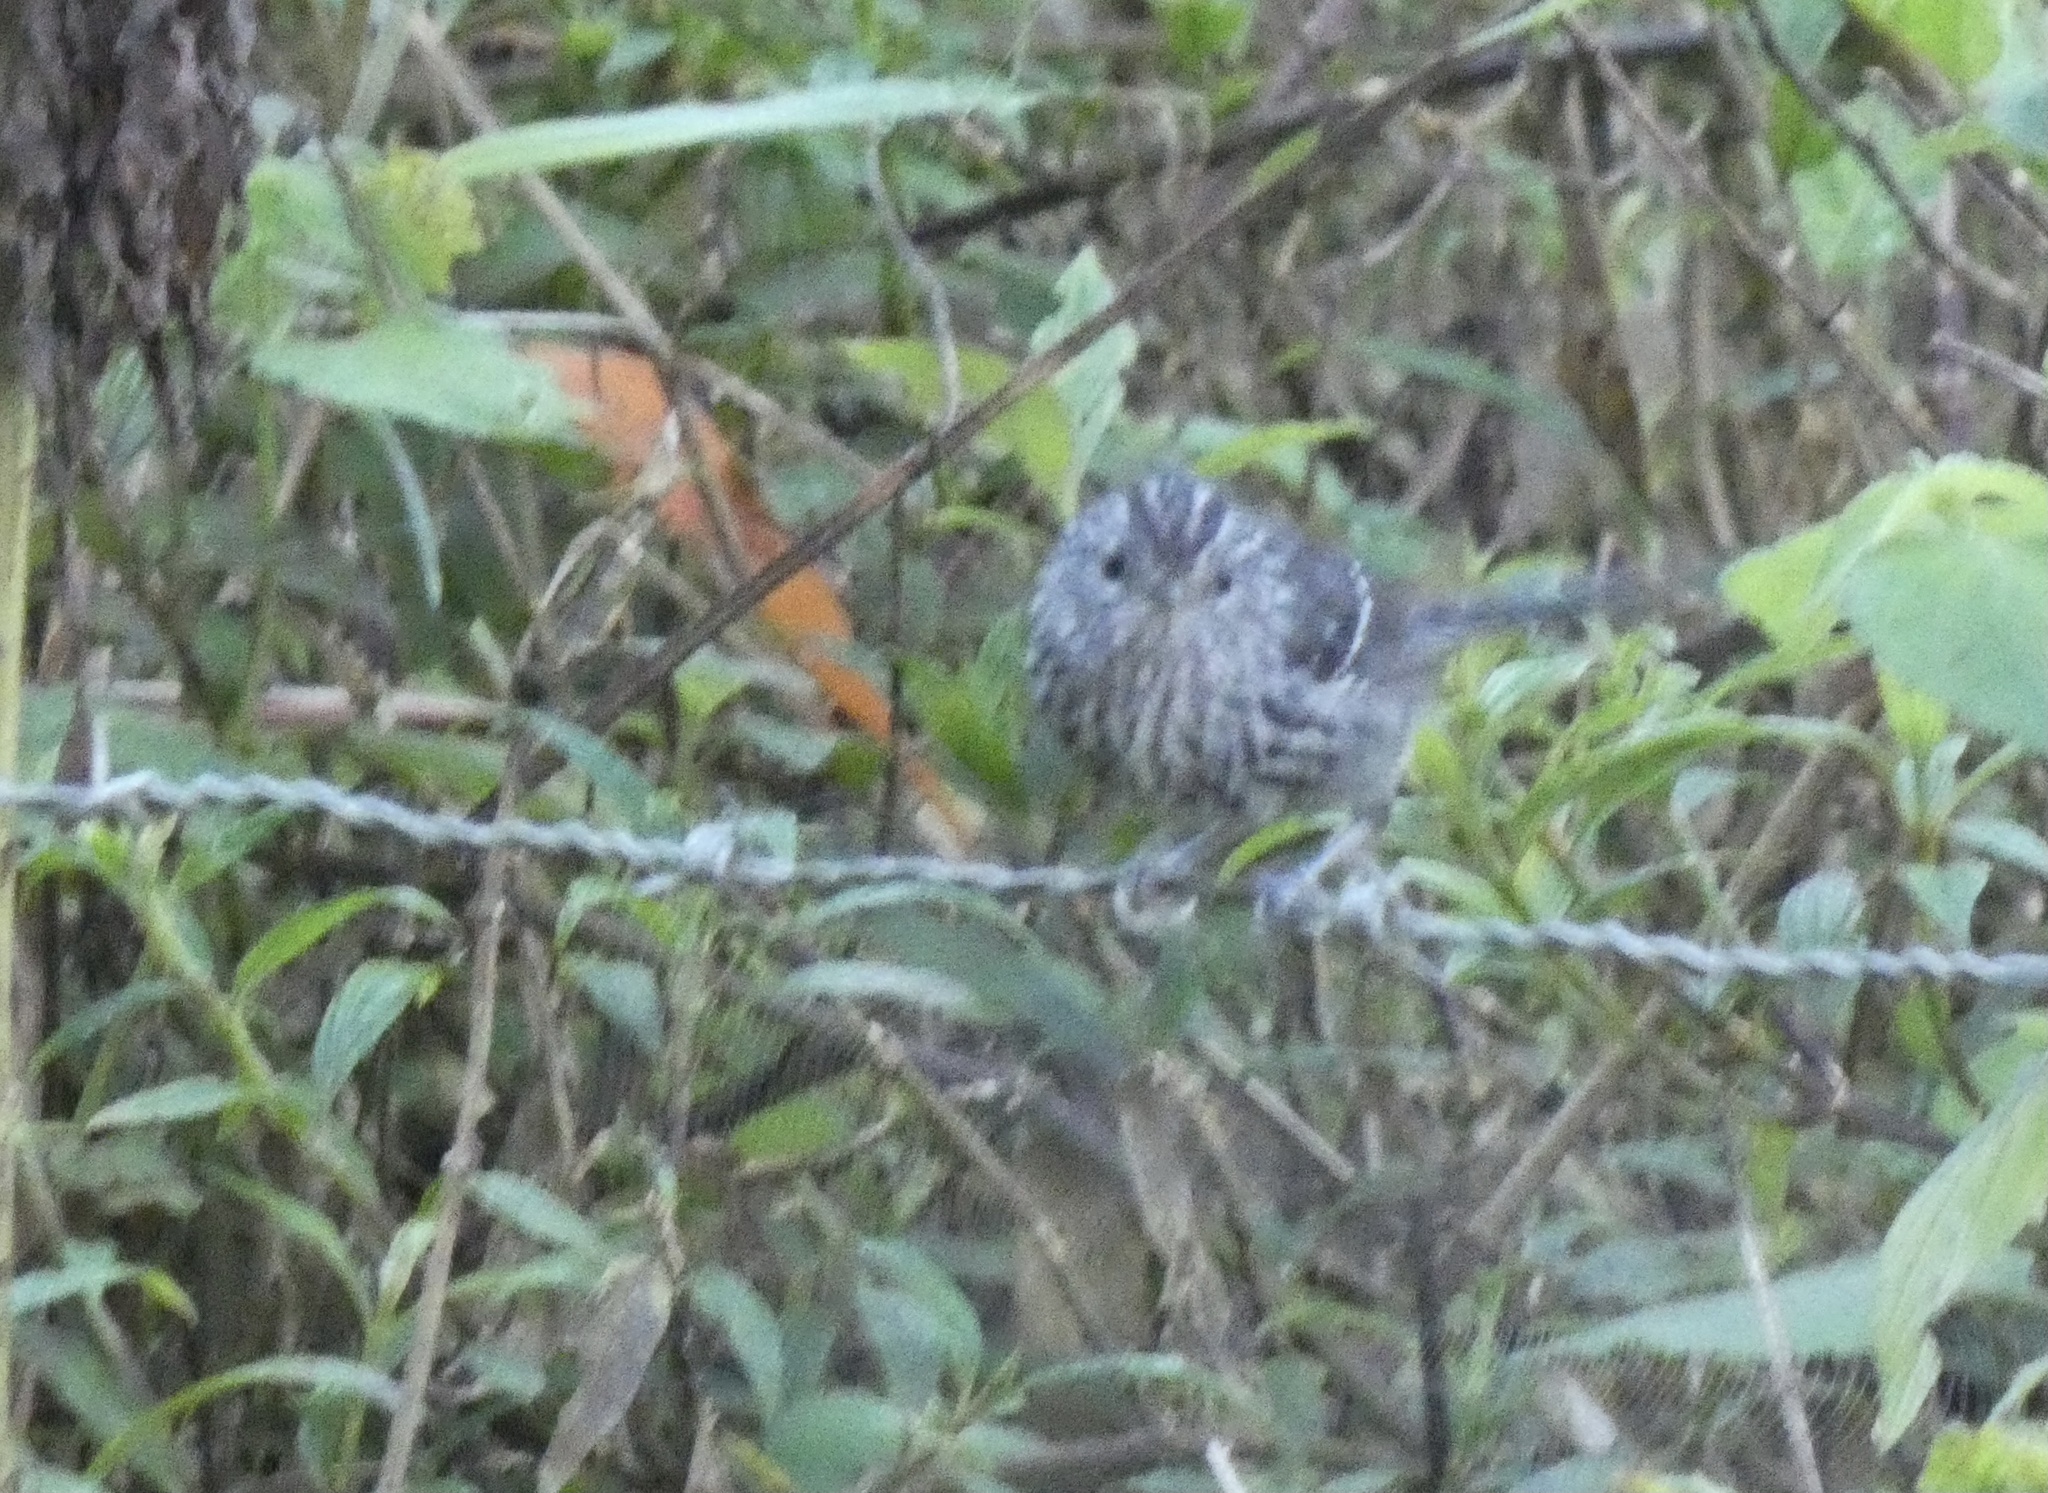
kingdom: Animalia
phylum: Chordata
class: Aves
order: Passeriformes
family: Thamnophilidae
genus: Drymophila
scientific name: Drymophila malura
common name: Dusky-tailed antbird
